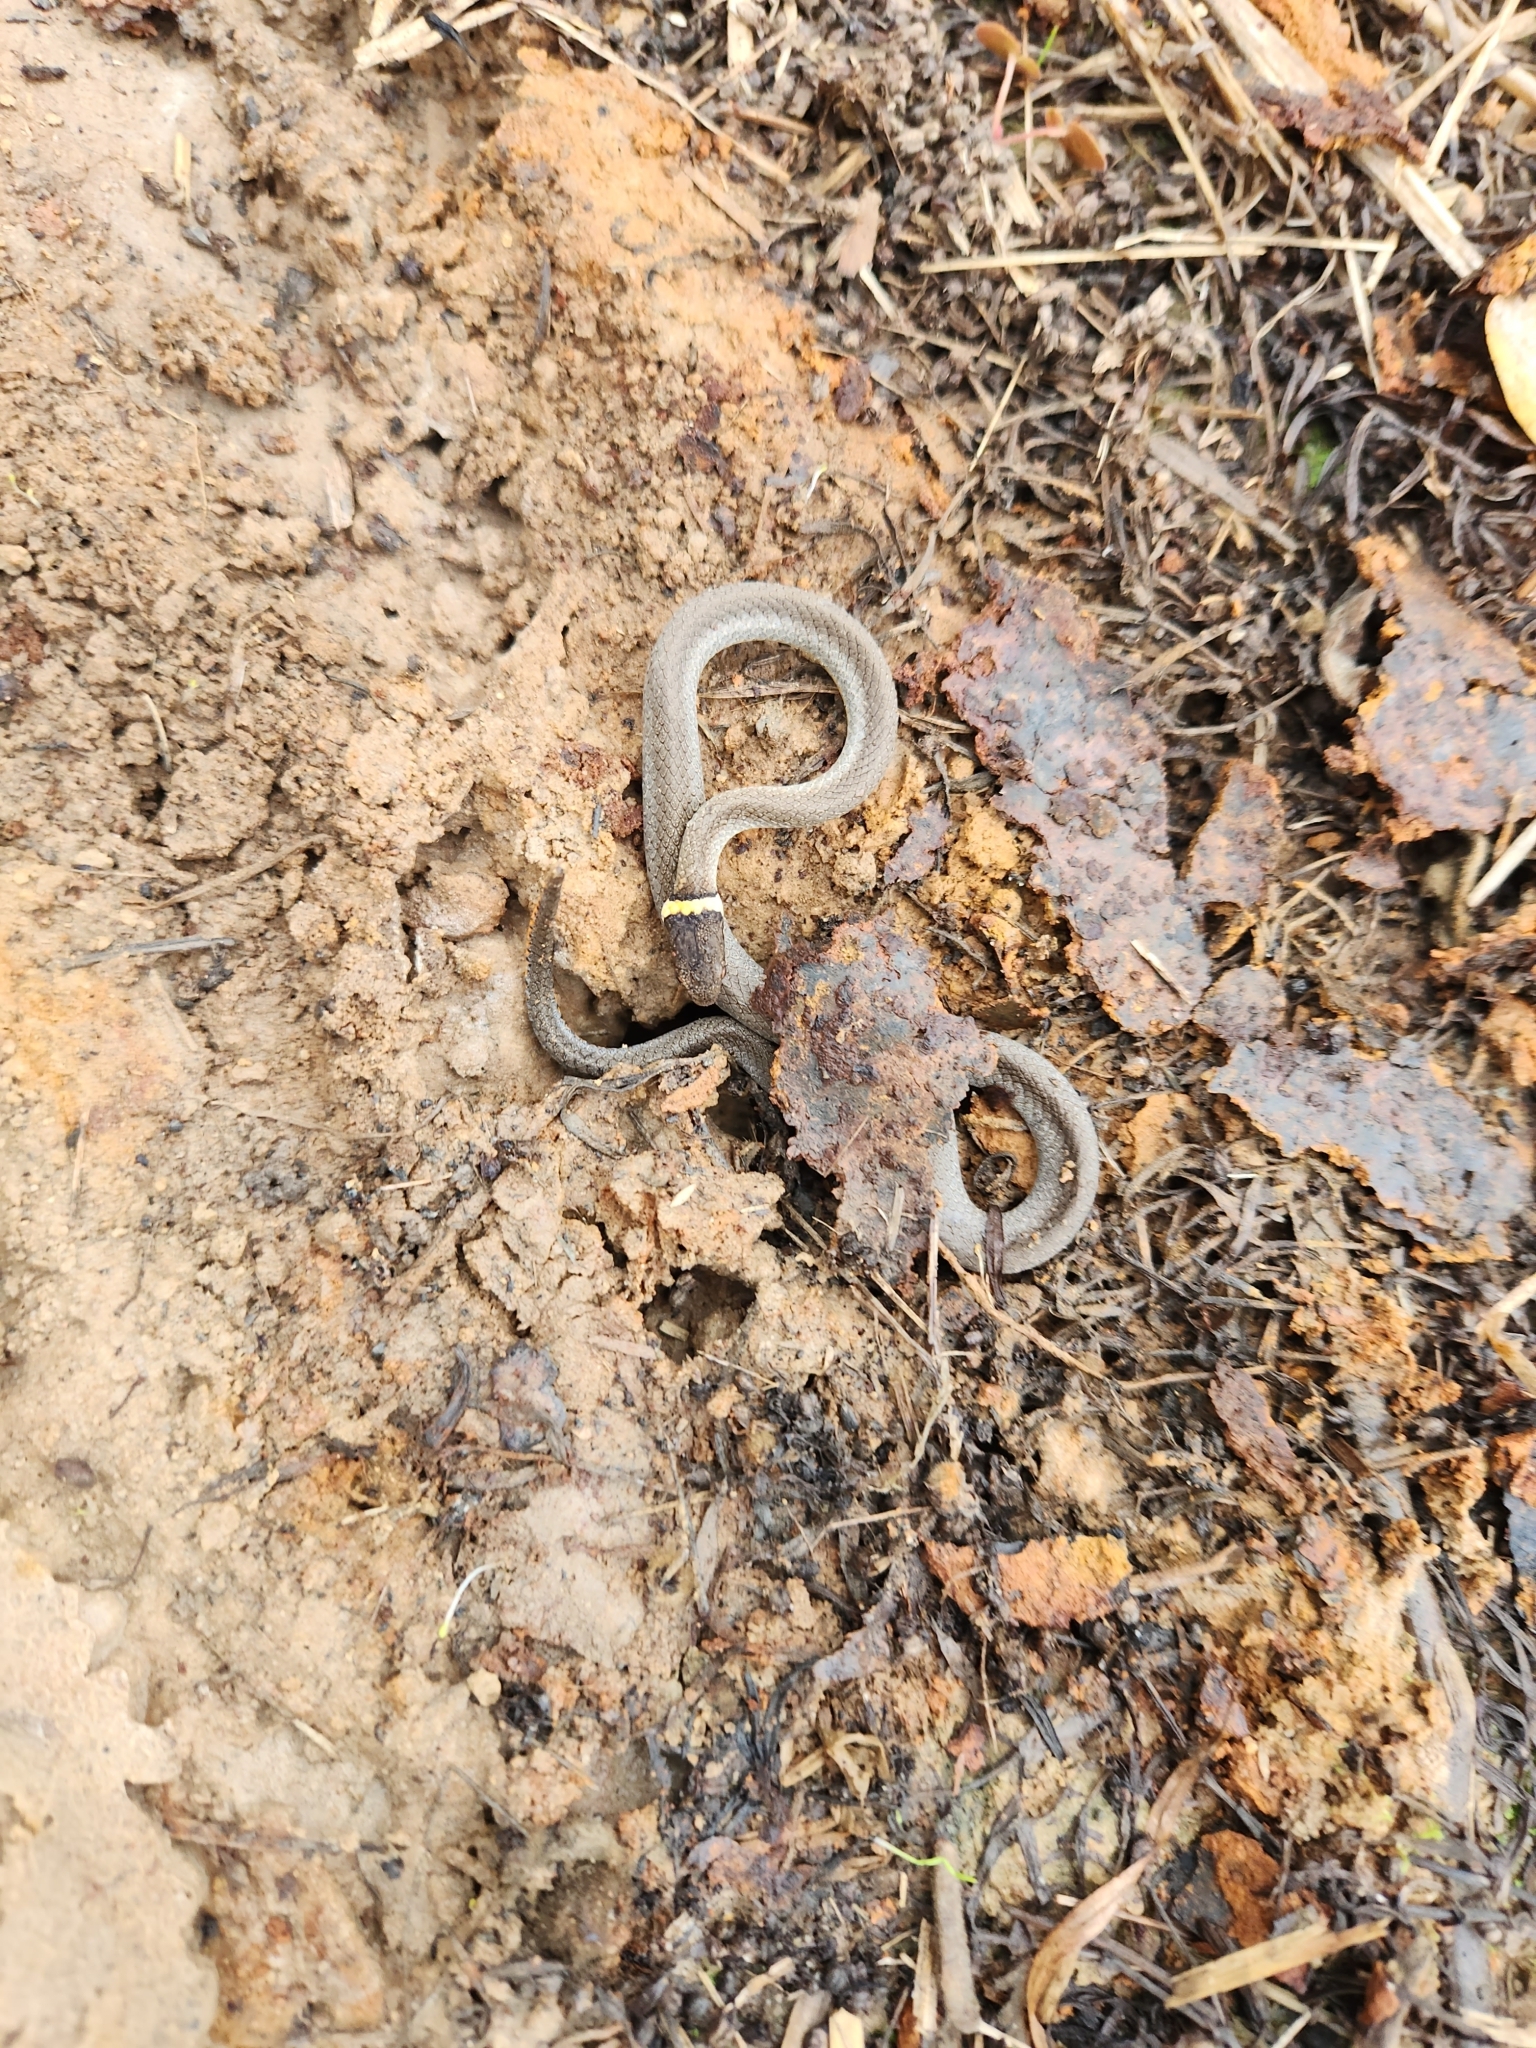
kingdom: Animalia
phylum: Chordata
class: Squamata
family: Colubridae
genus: Diadophis
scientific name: Diadophis punctatus
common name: Ringneck snake
